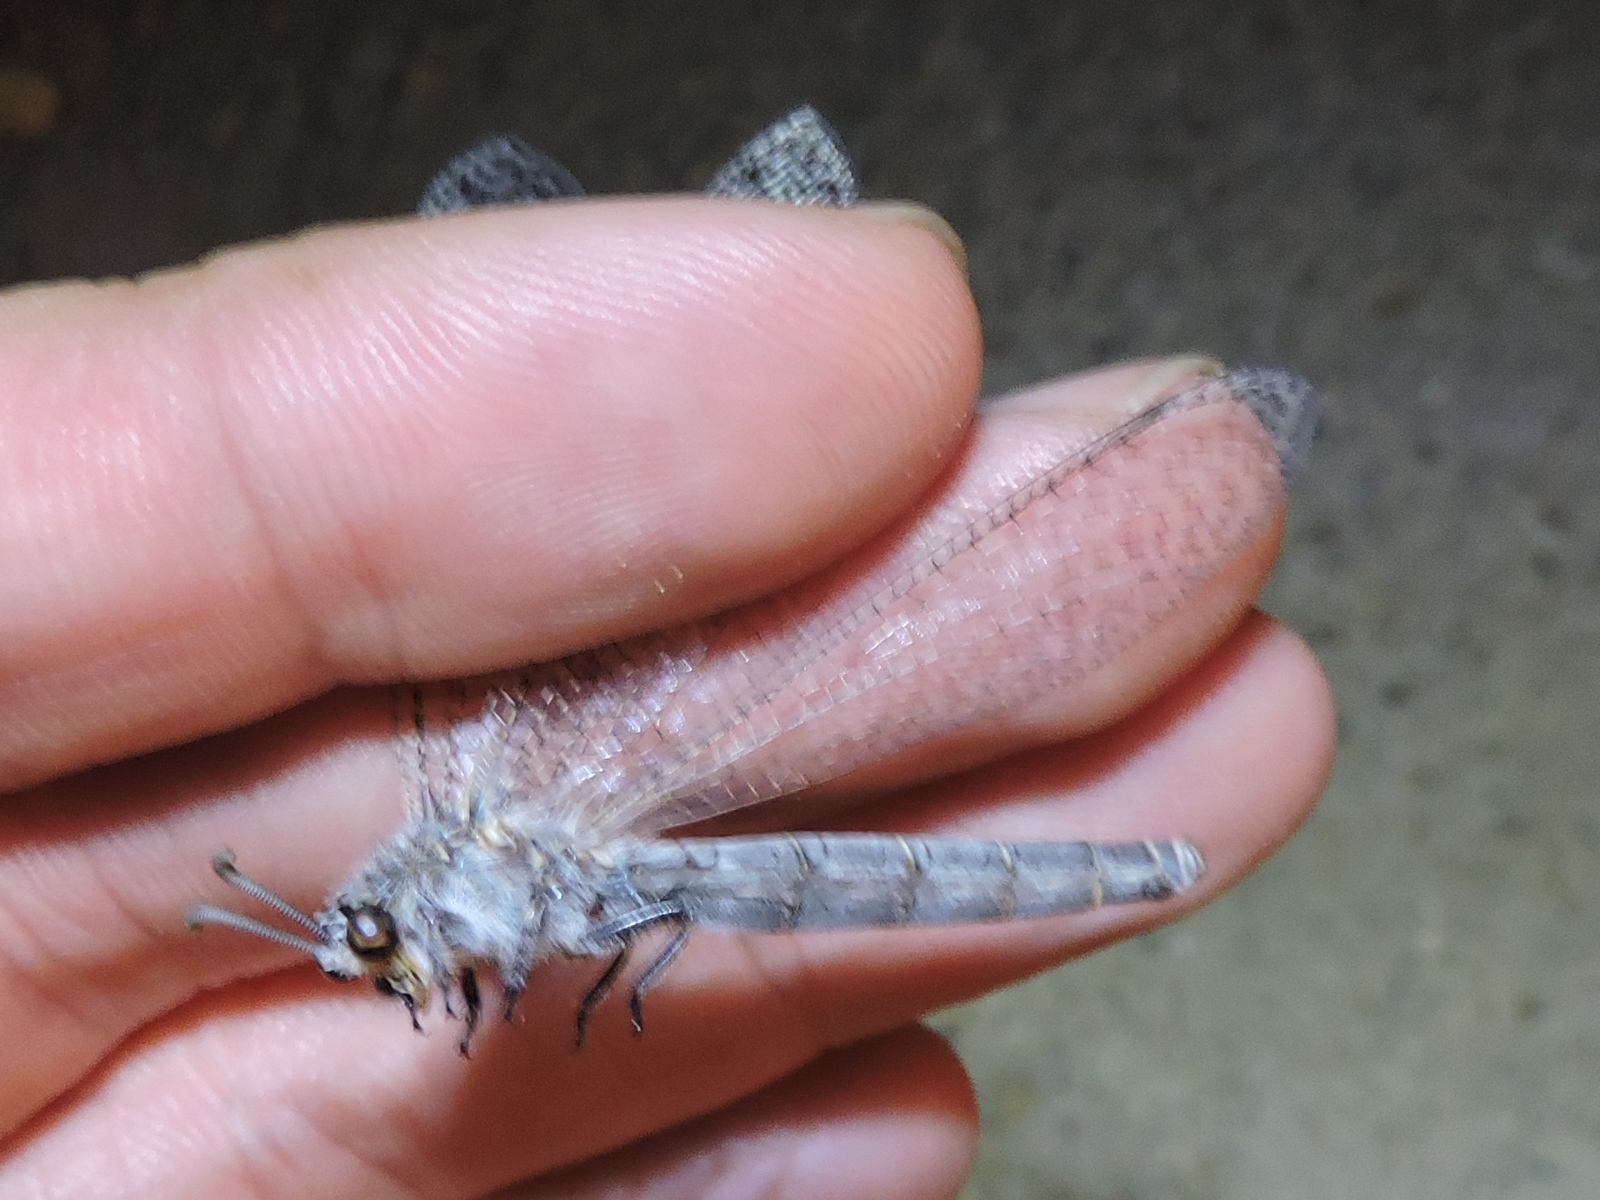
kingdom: Animalia
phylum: Arthropoda
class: Insecta
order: Neuroptera
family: Myrmeleontidae
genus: Vella
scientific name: Vella fallax
